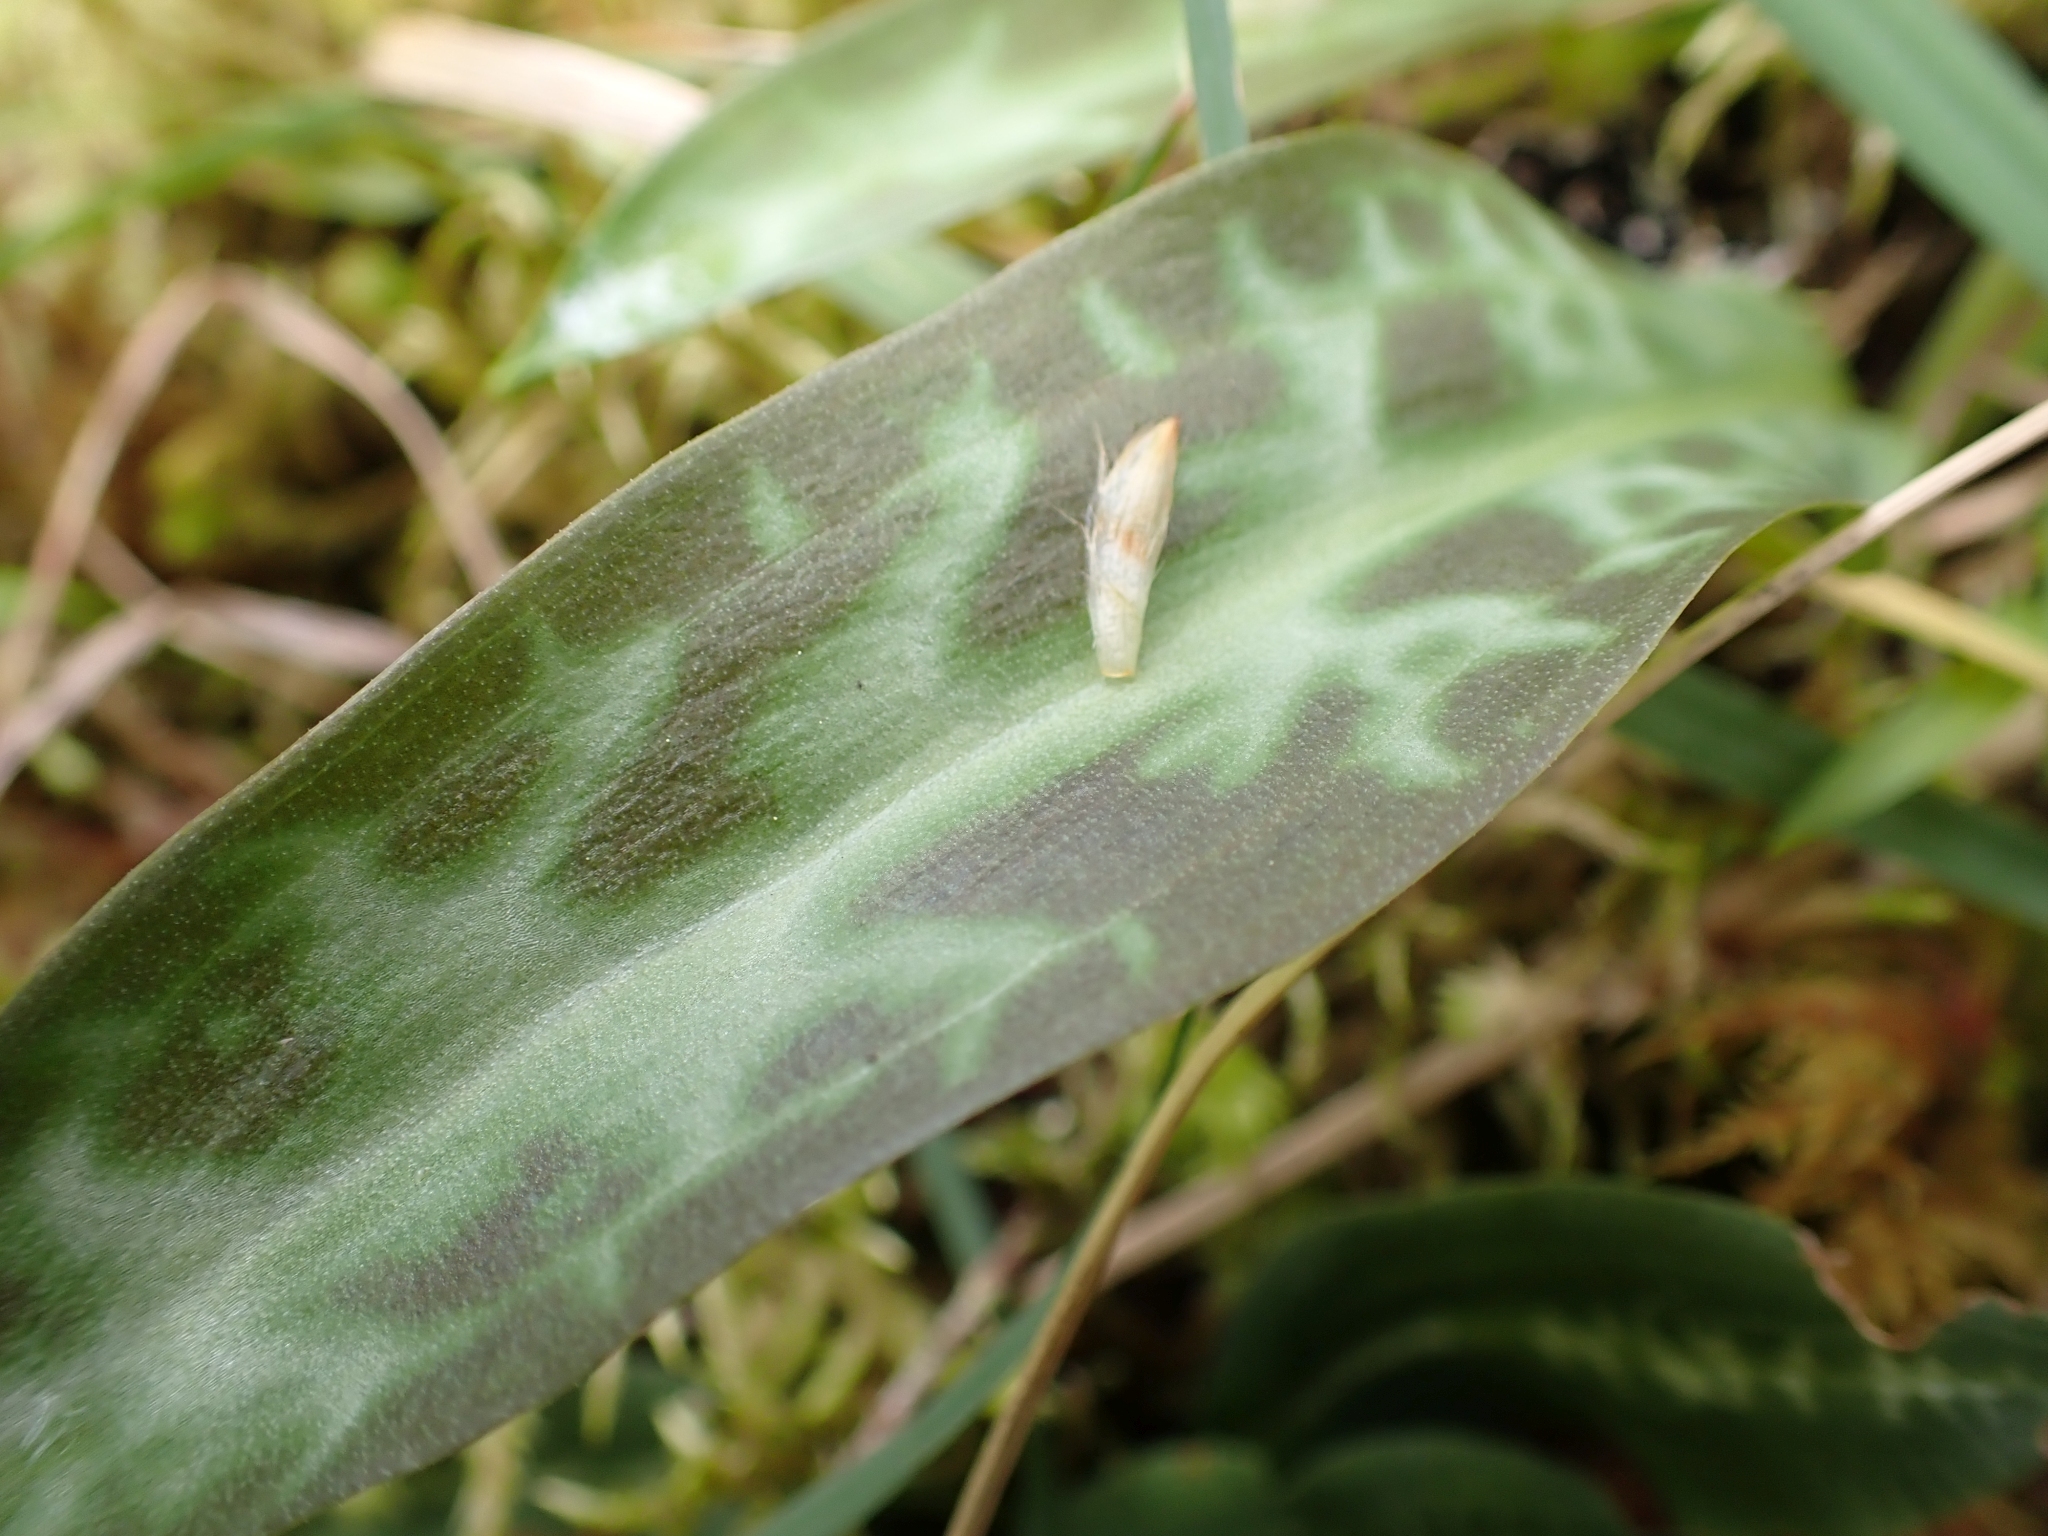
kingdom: Plantae
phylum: Tracheophyta
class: Liliopsida
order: Liliales
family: Liliaceae
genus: Erythronium
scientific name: Erythronium oregonum
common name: Giant adder's-tongue
